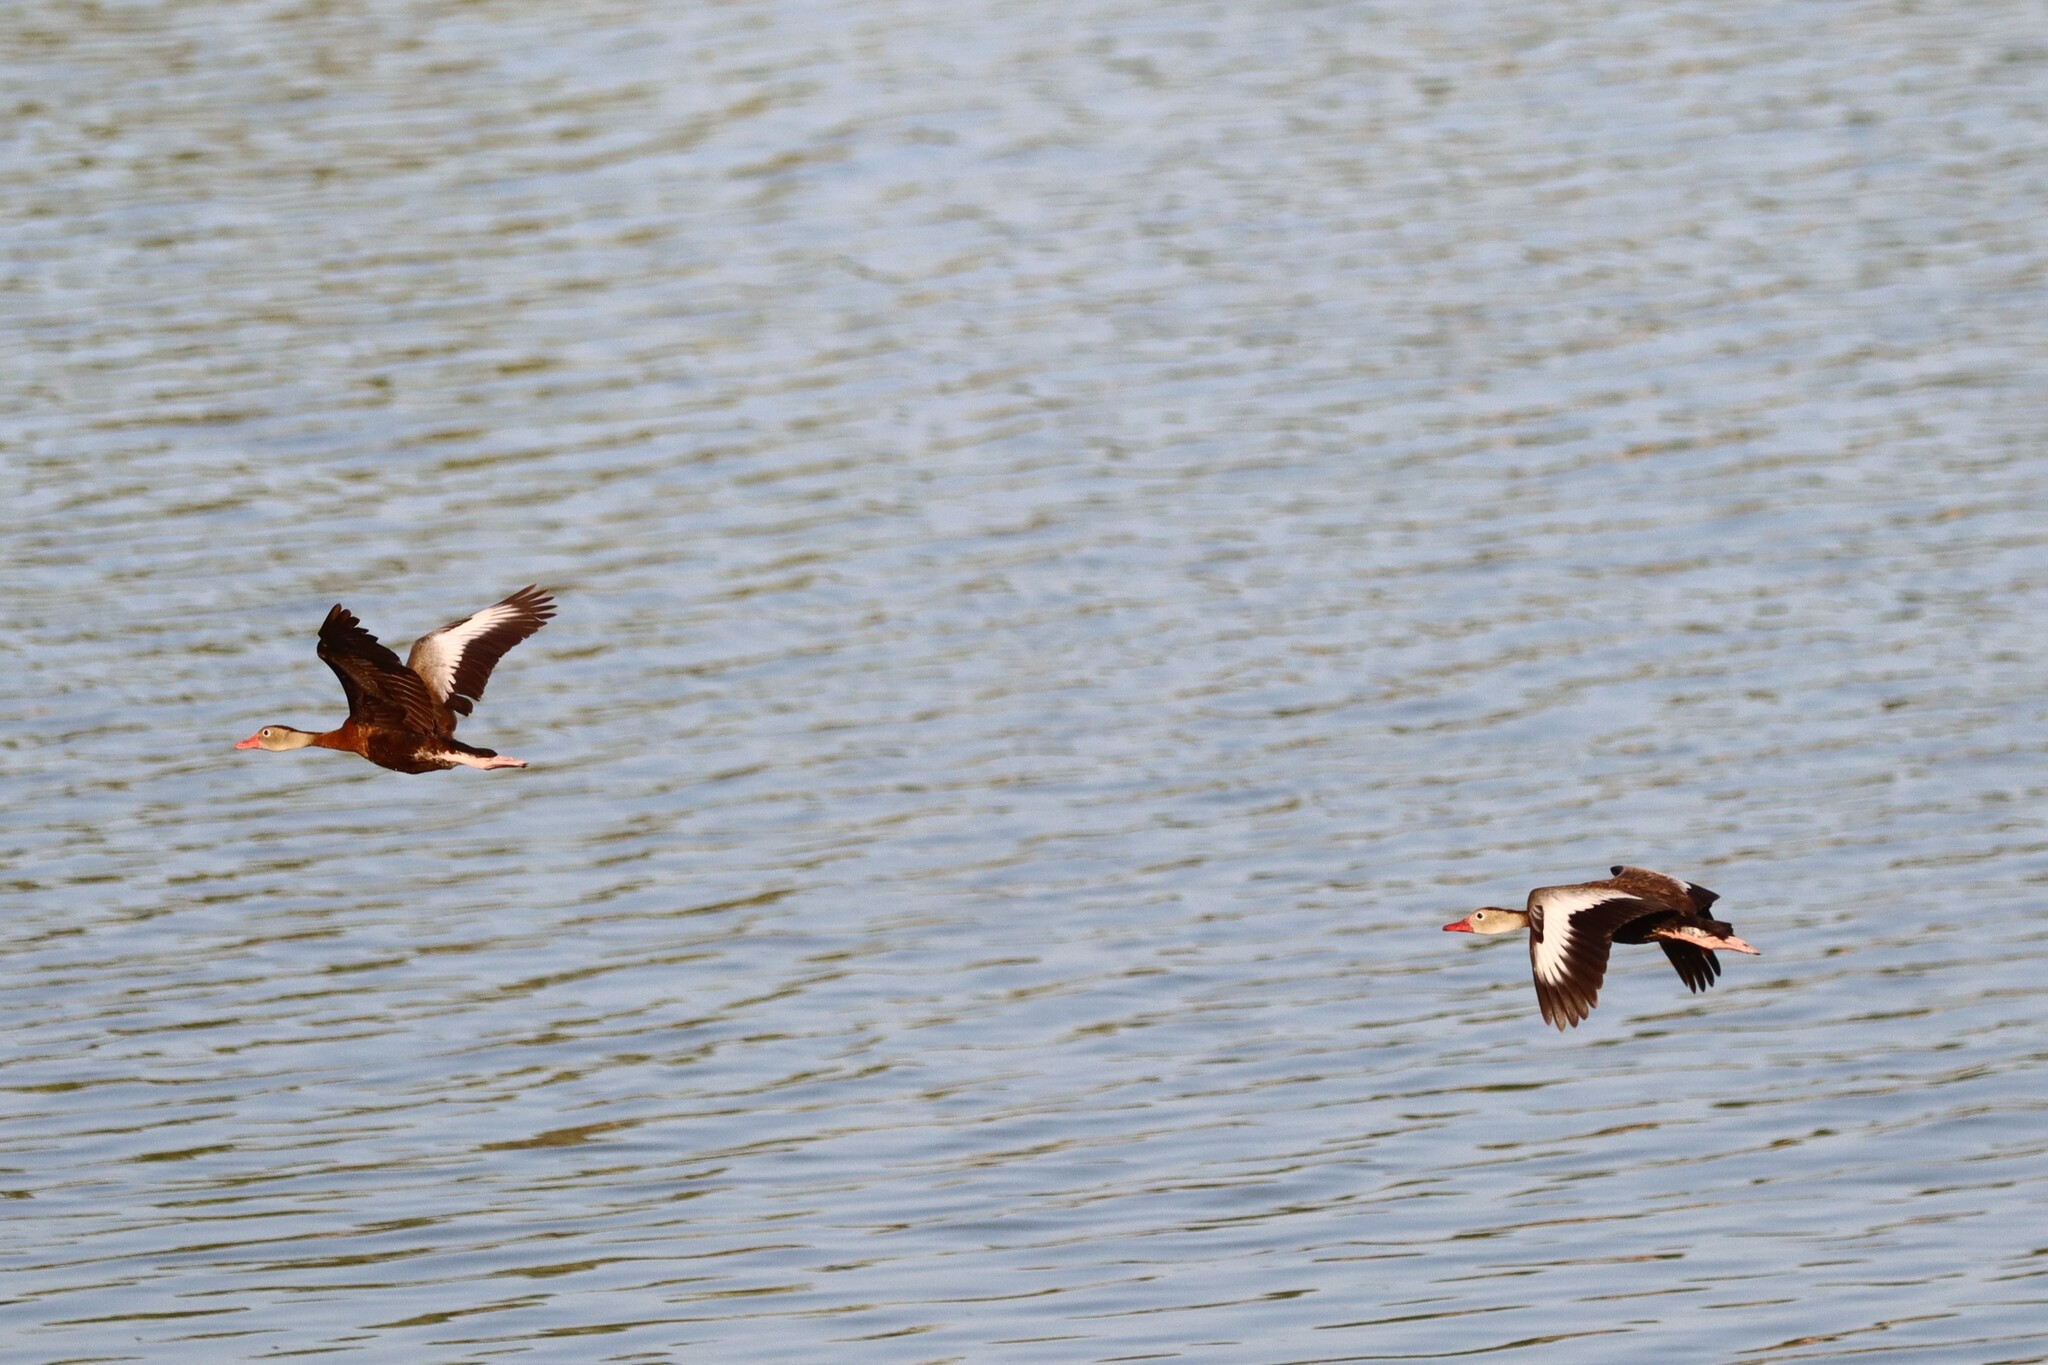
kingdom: Animalia
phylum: Chordata
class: Aves
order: Anseriformes
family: Anatidae
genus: Dendrocygna
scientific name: Dendrocygna autumnalis
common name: Black-bellied whistling duck
